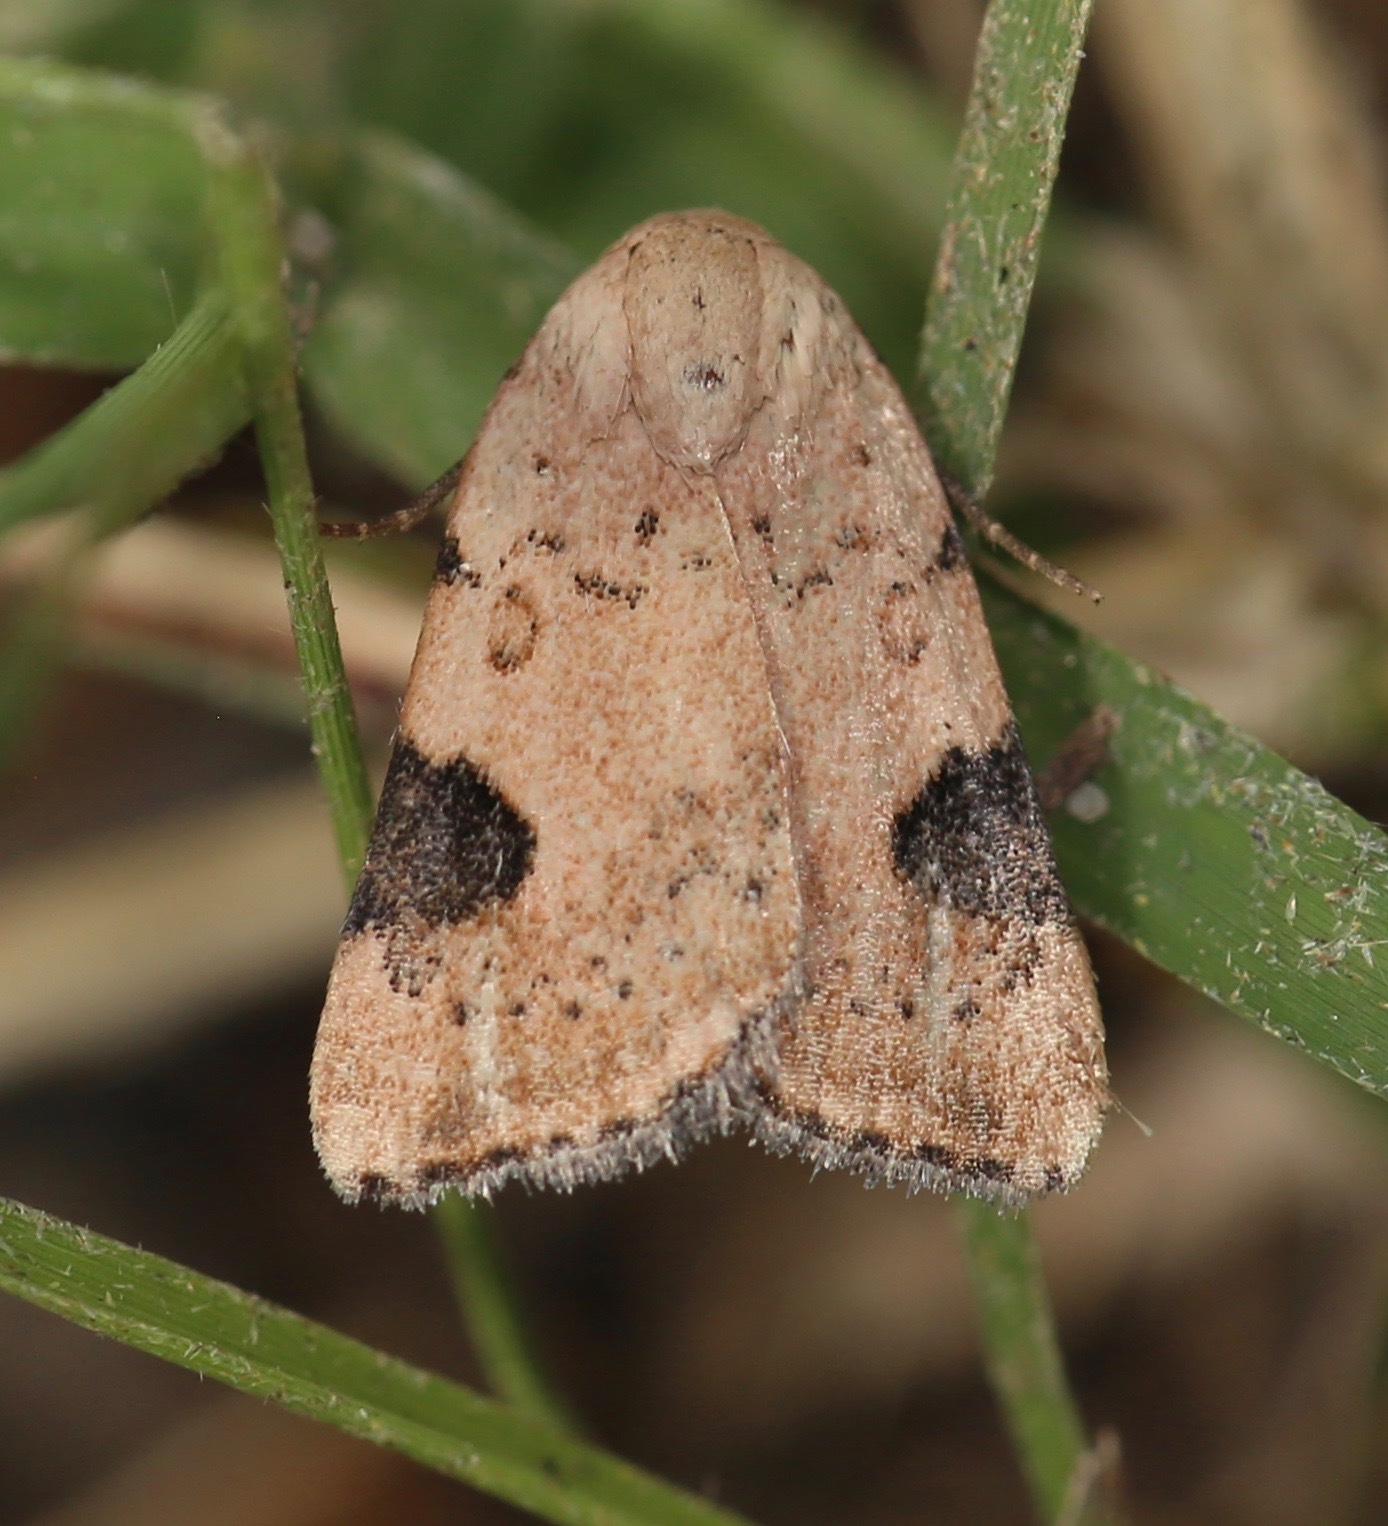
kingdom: Animalia
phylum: Arthropoda
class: Insecta
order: Lepidoptera
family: Noctuidae
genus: Micrathetis
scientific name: Micrathetis costiplaga
